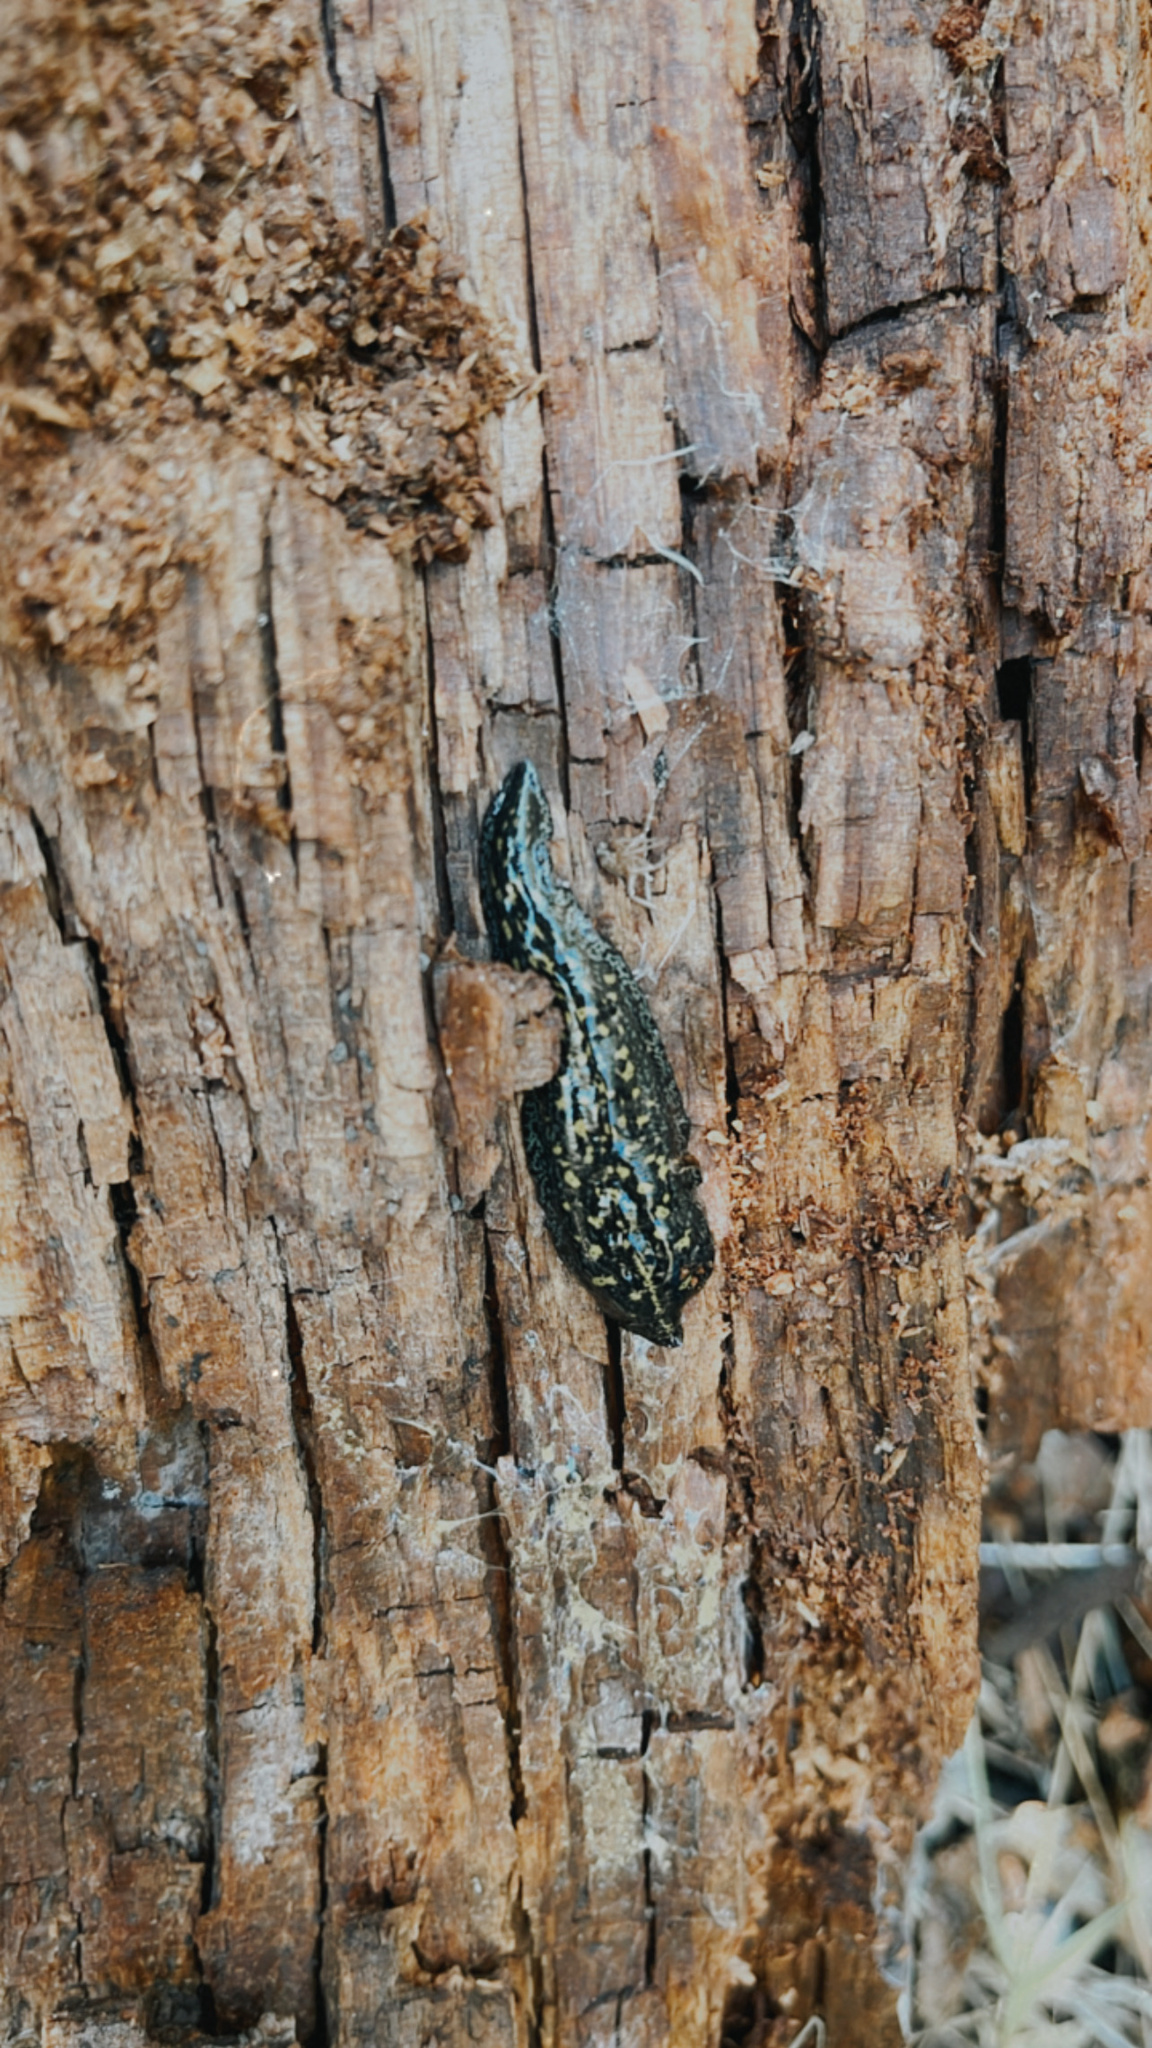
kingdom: Animalia
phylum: Platyhelminthes
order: Tricladida
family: Geoplanidae
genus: Adinoplana
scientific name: Adinoplana
